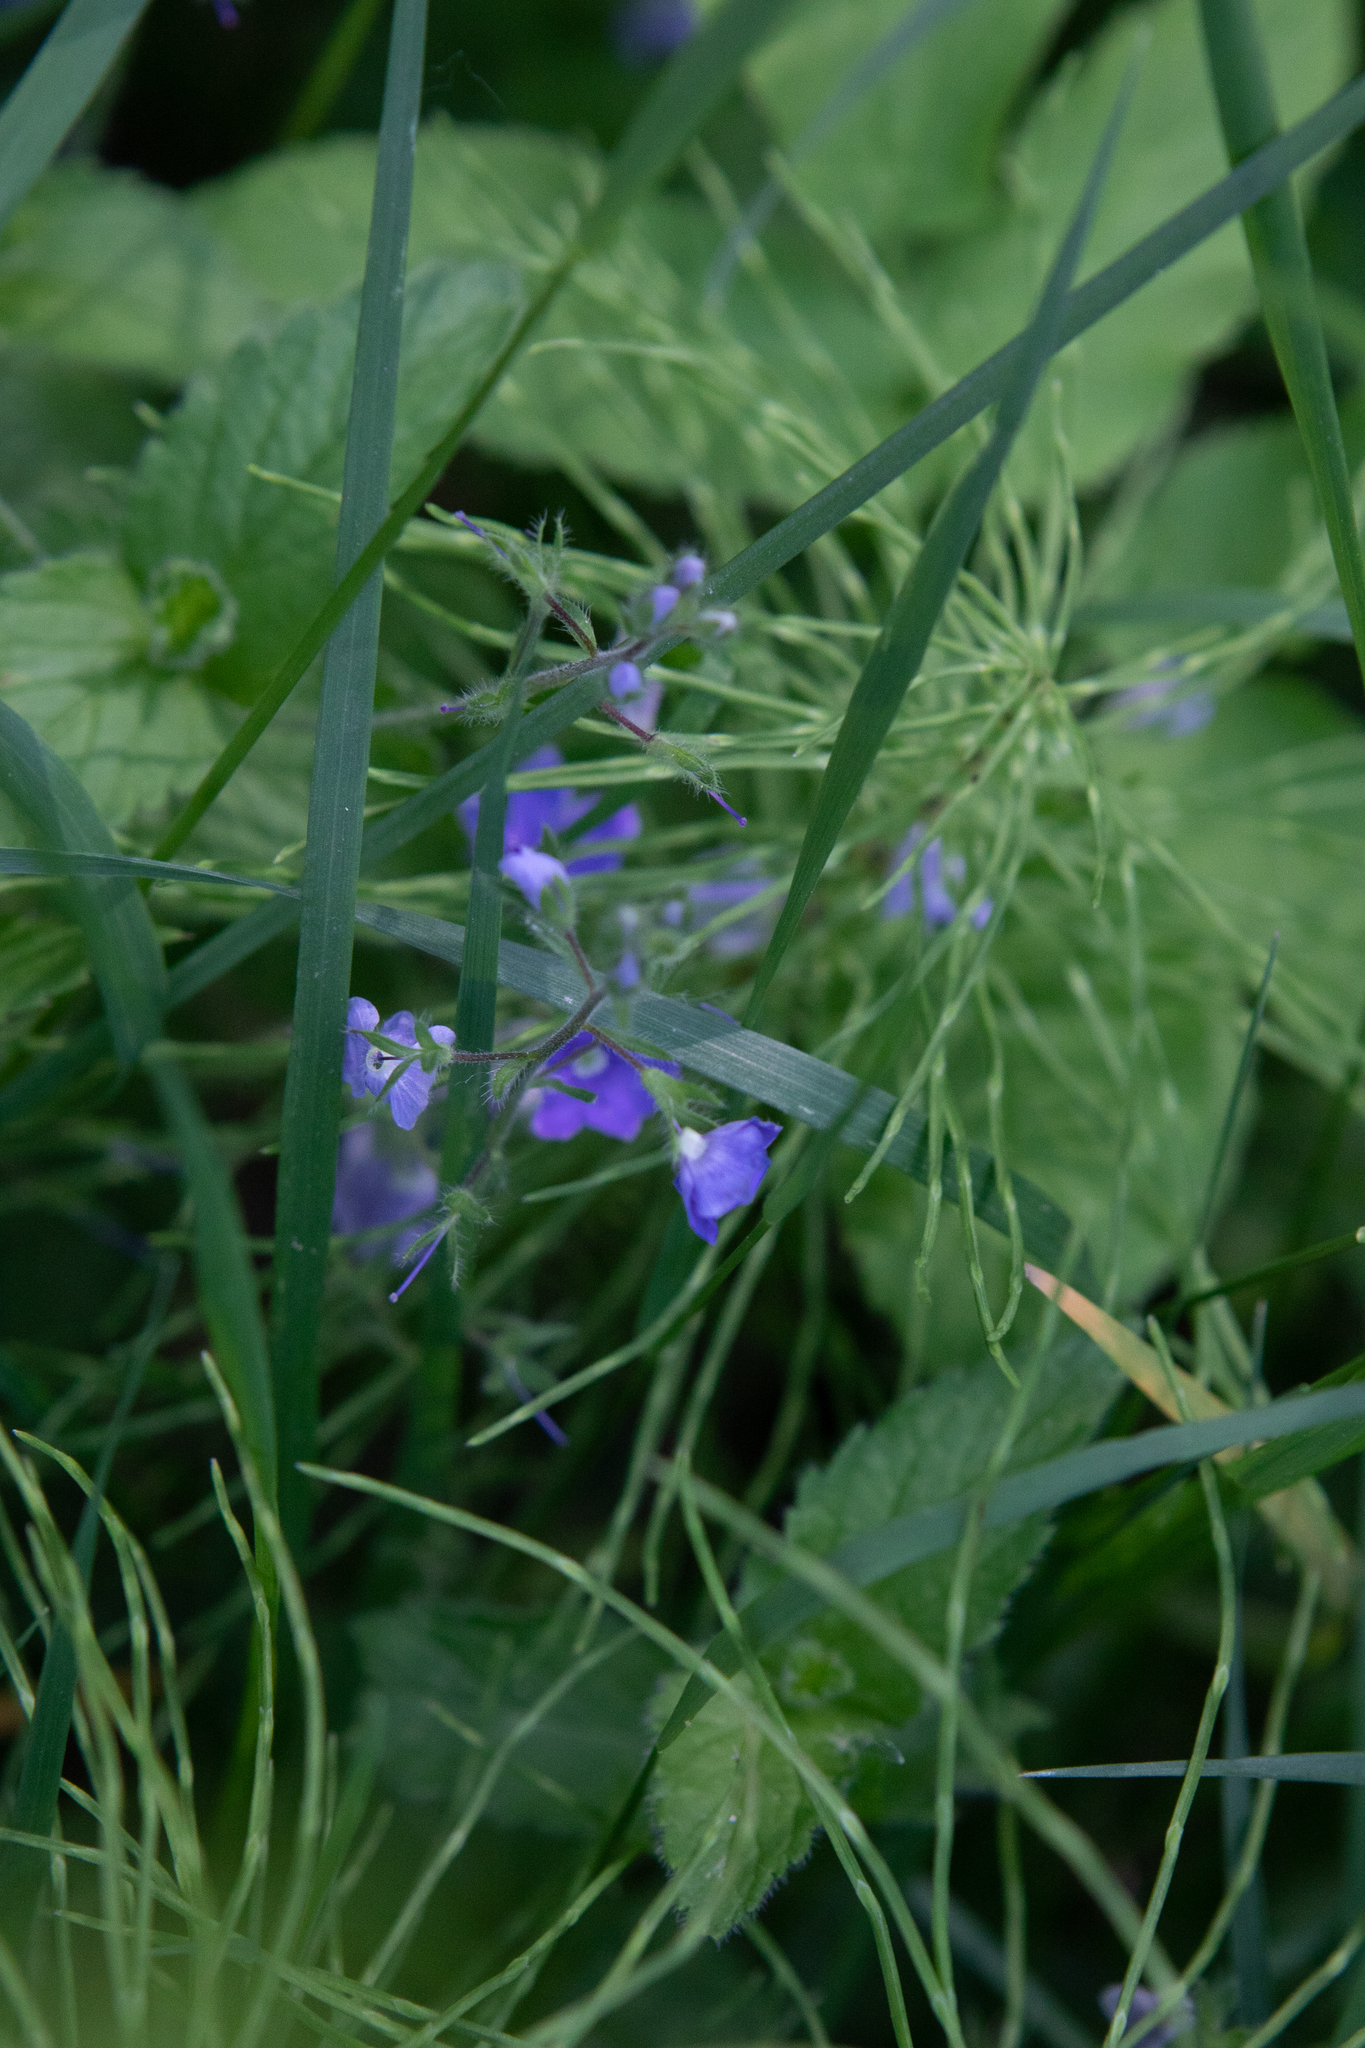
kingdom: Plantae
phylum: Tracheophyta
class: Magnoliopsida
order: Lamiales
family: Plantaginaceae
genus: Veronica
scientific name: Veronica chamaedrys
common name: Germander speedwell
